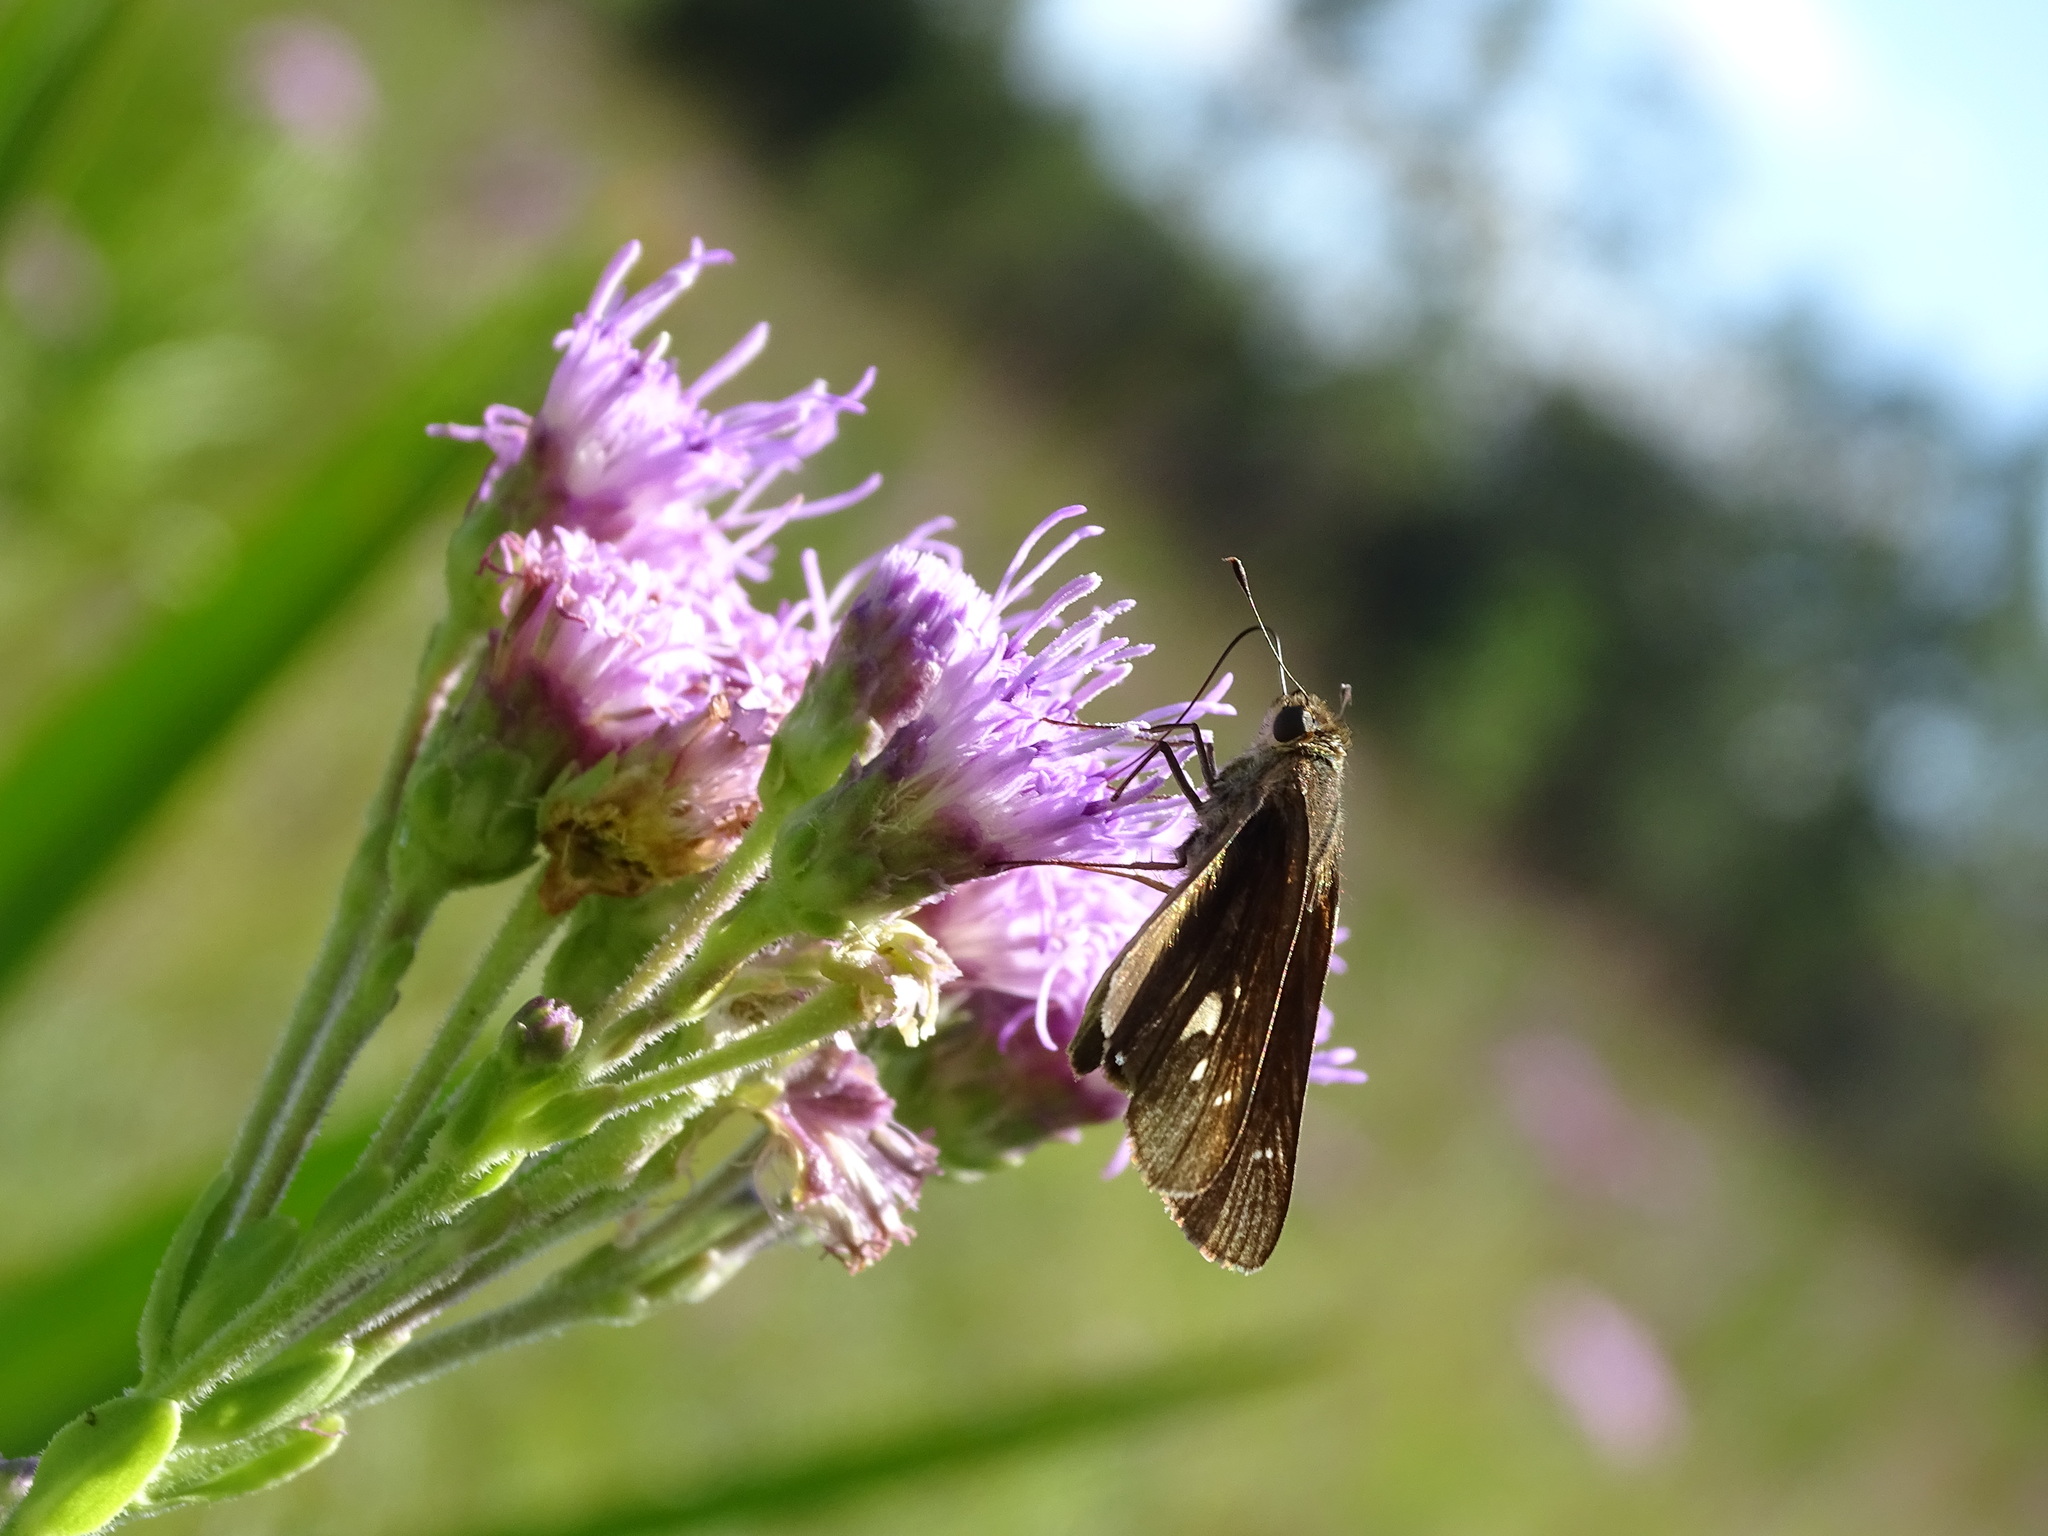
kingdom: Animalia
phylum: Arthropoda
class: Insecta
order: Lepidoptera
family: Hesperiidae
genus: Panoquina
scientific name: Panoquina ocola
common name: Ocola skipper
